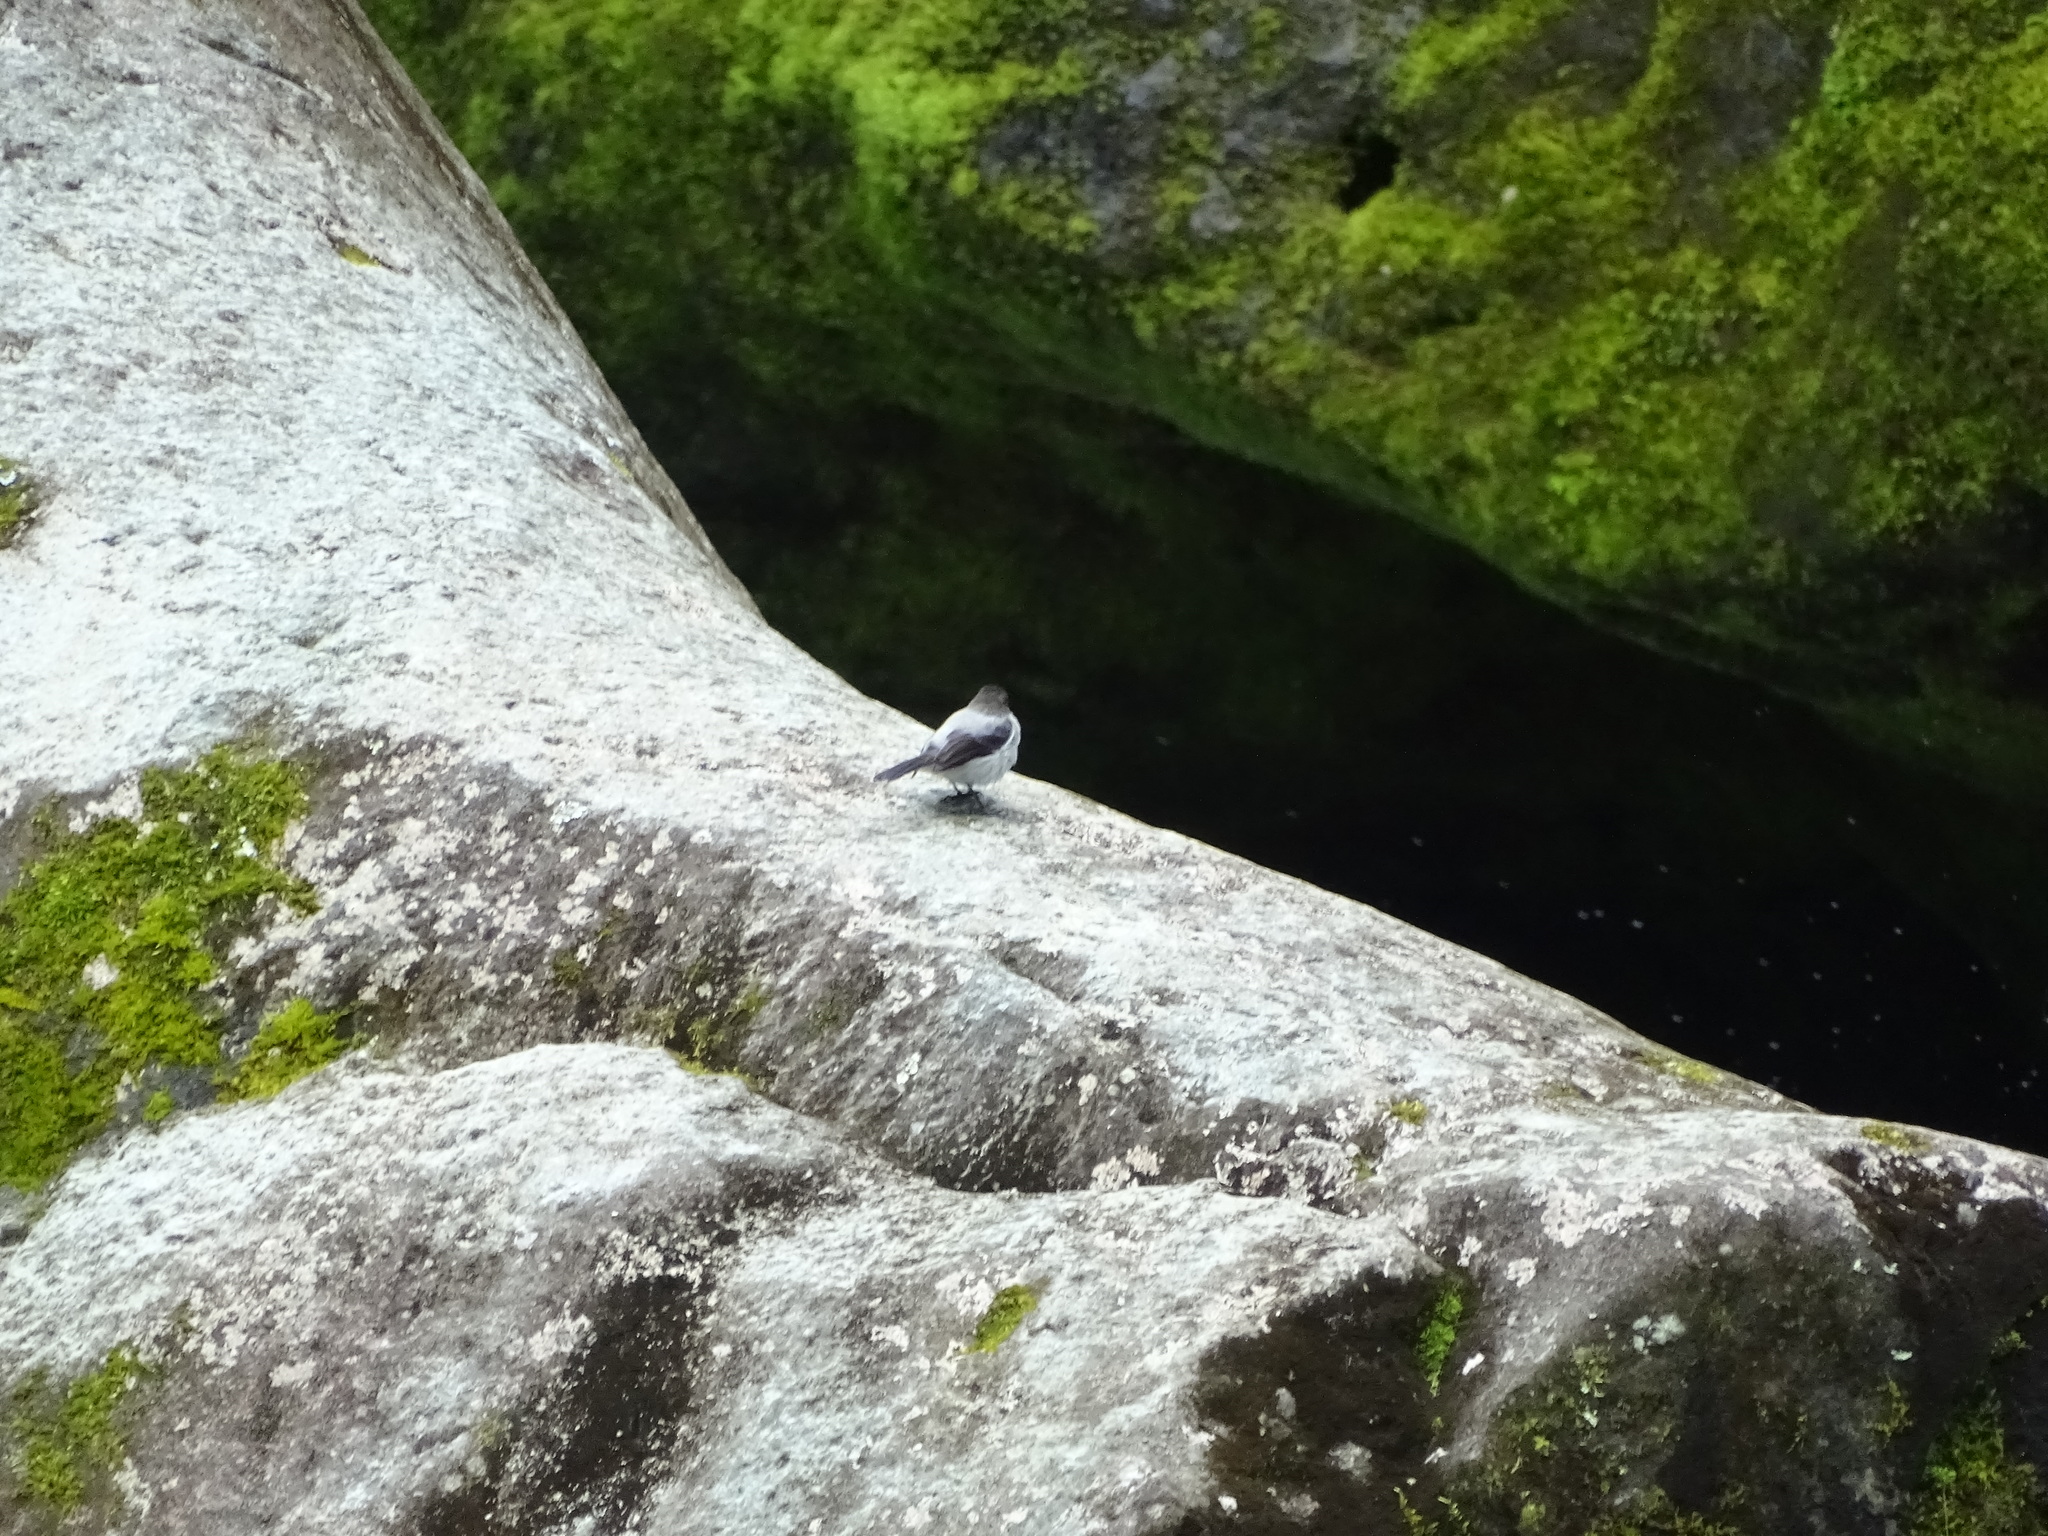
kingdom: Animalia
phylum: Chordata
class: Aves
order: Passeriformes
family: Tyrannidae
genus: Serpophaga
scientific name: Serpophaga cinerea
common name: Torrent tyrannulet
